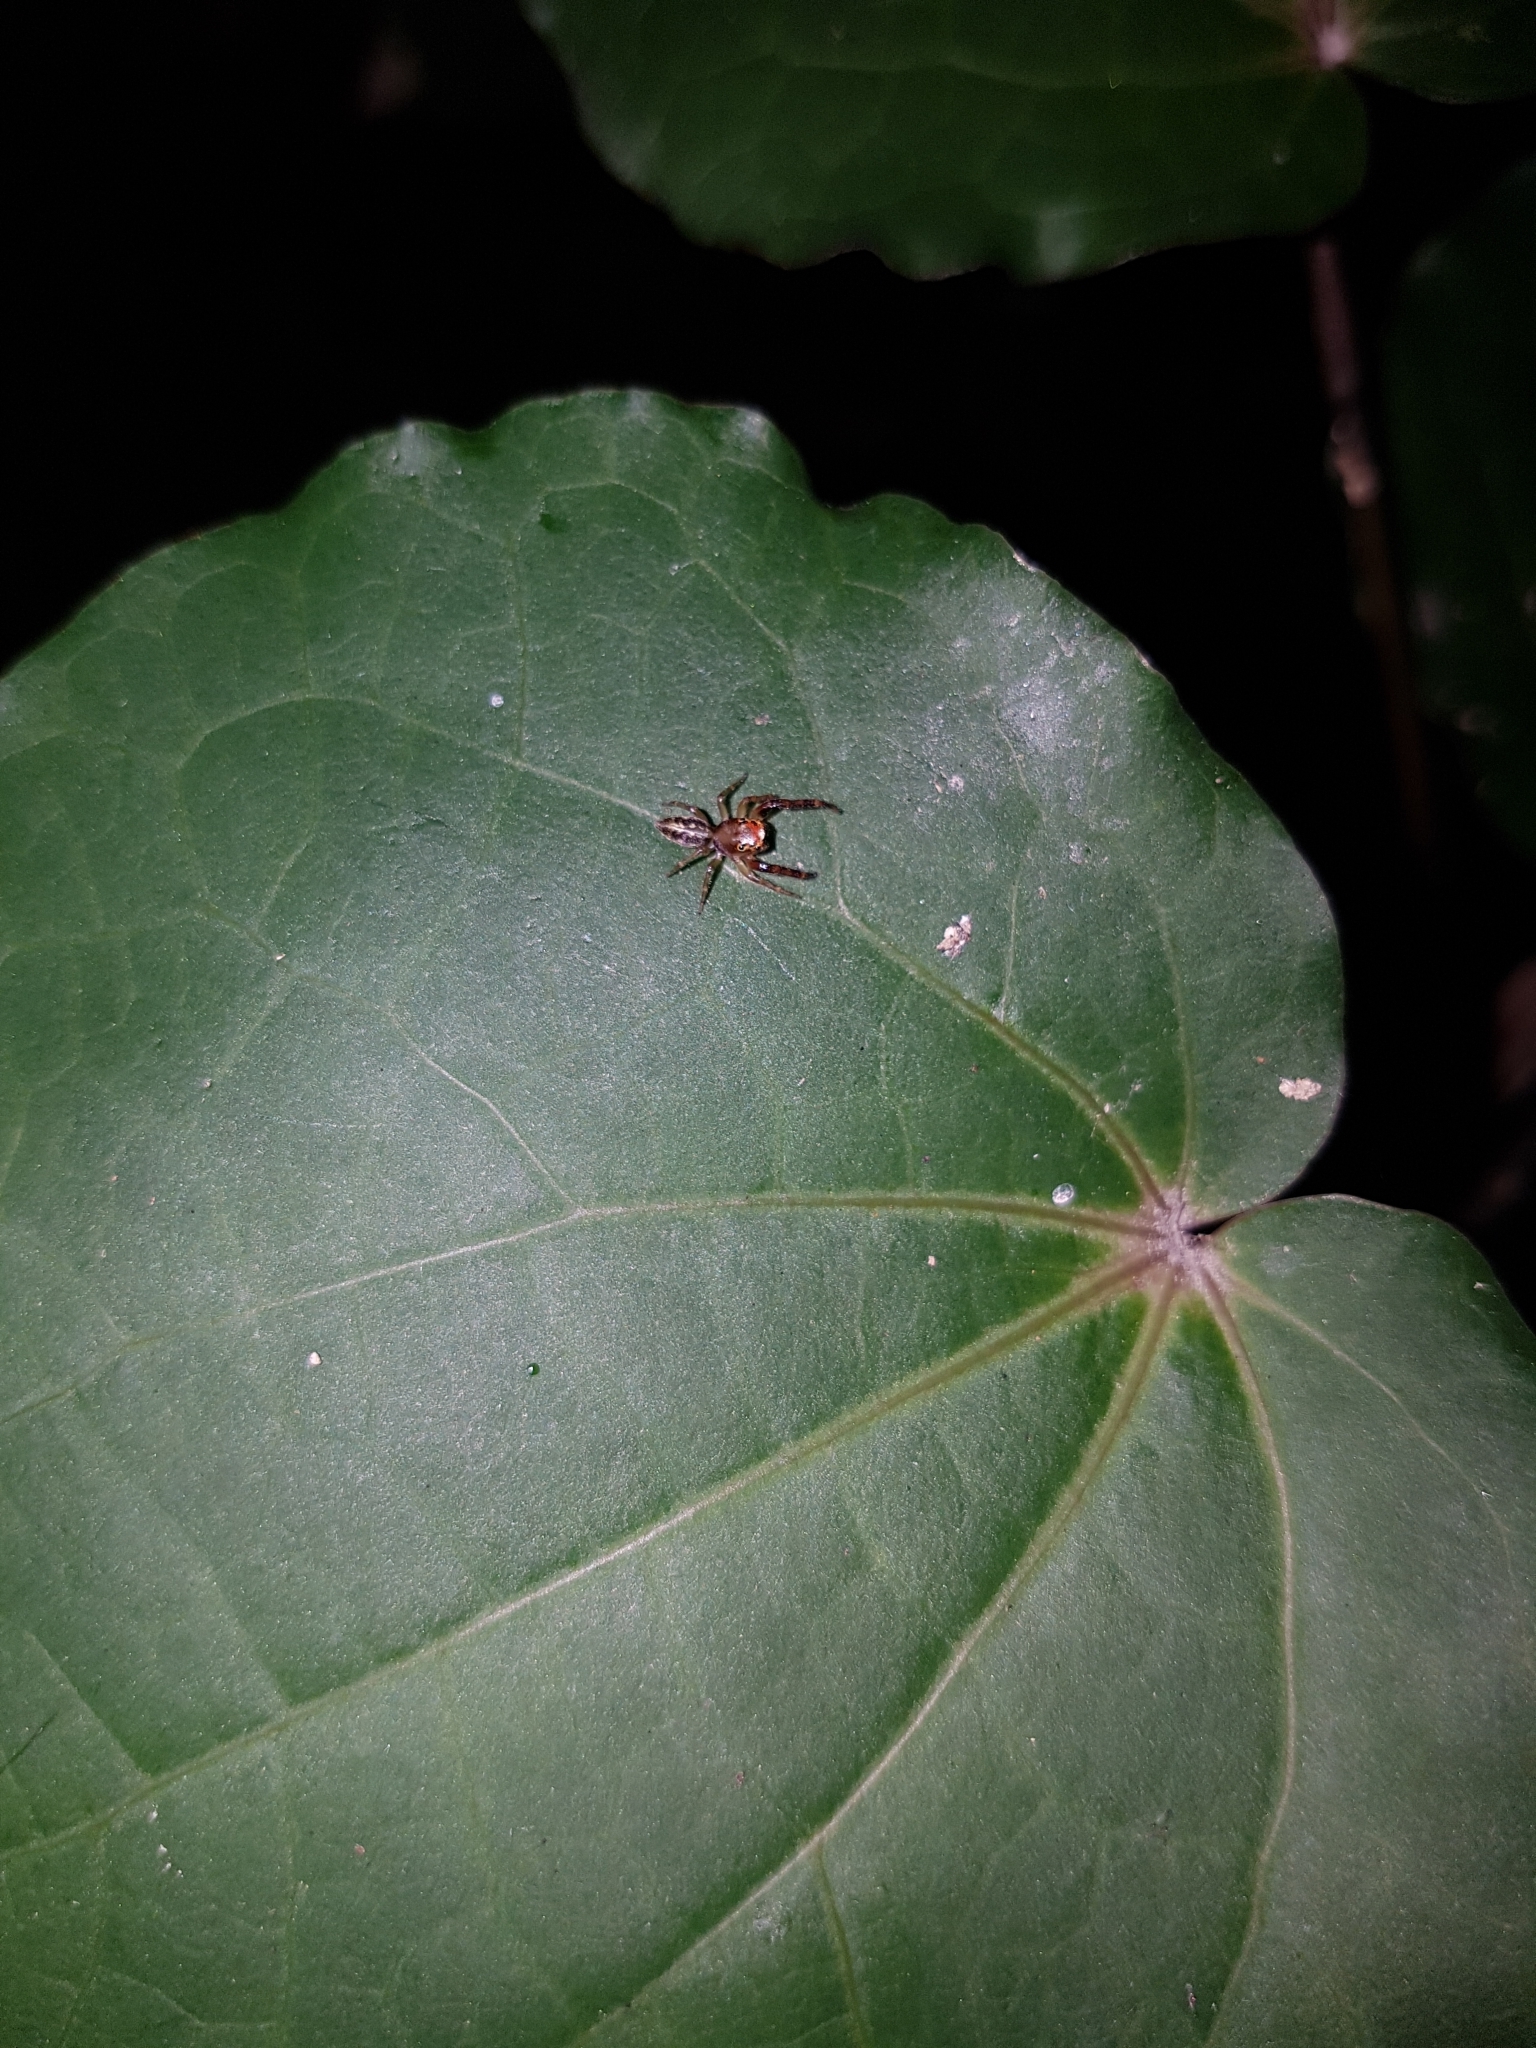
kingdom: Animalia
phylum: Arthropoda
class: Arachnida
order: Araneae
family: Salticidae
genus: Trite
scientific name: Trite mustilina
